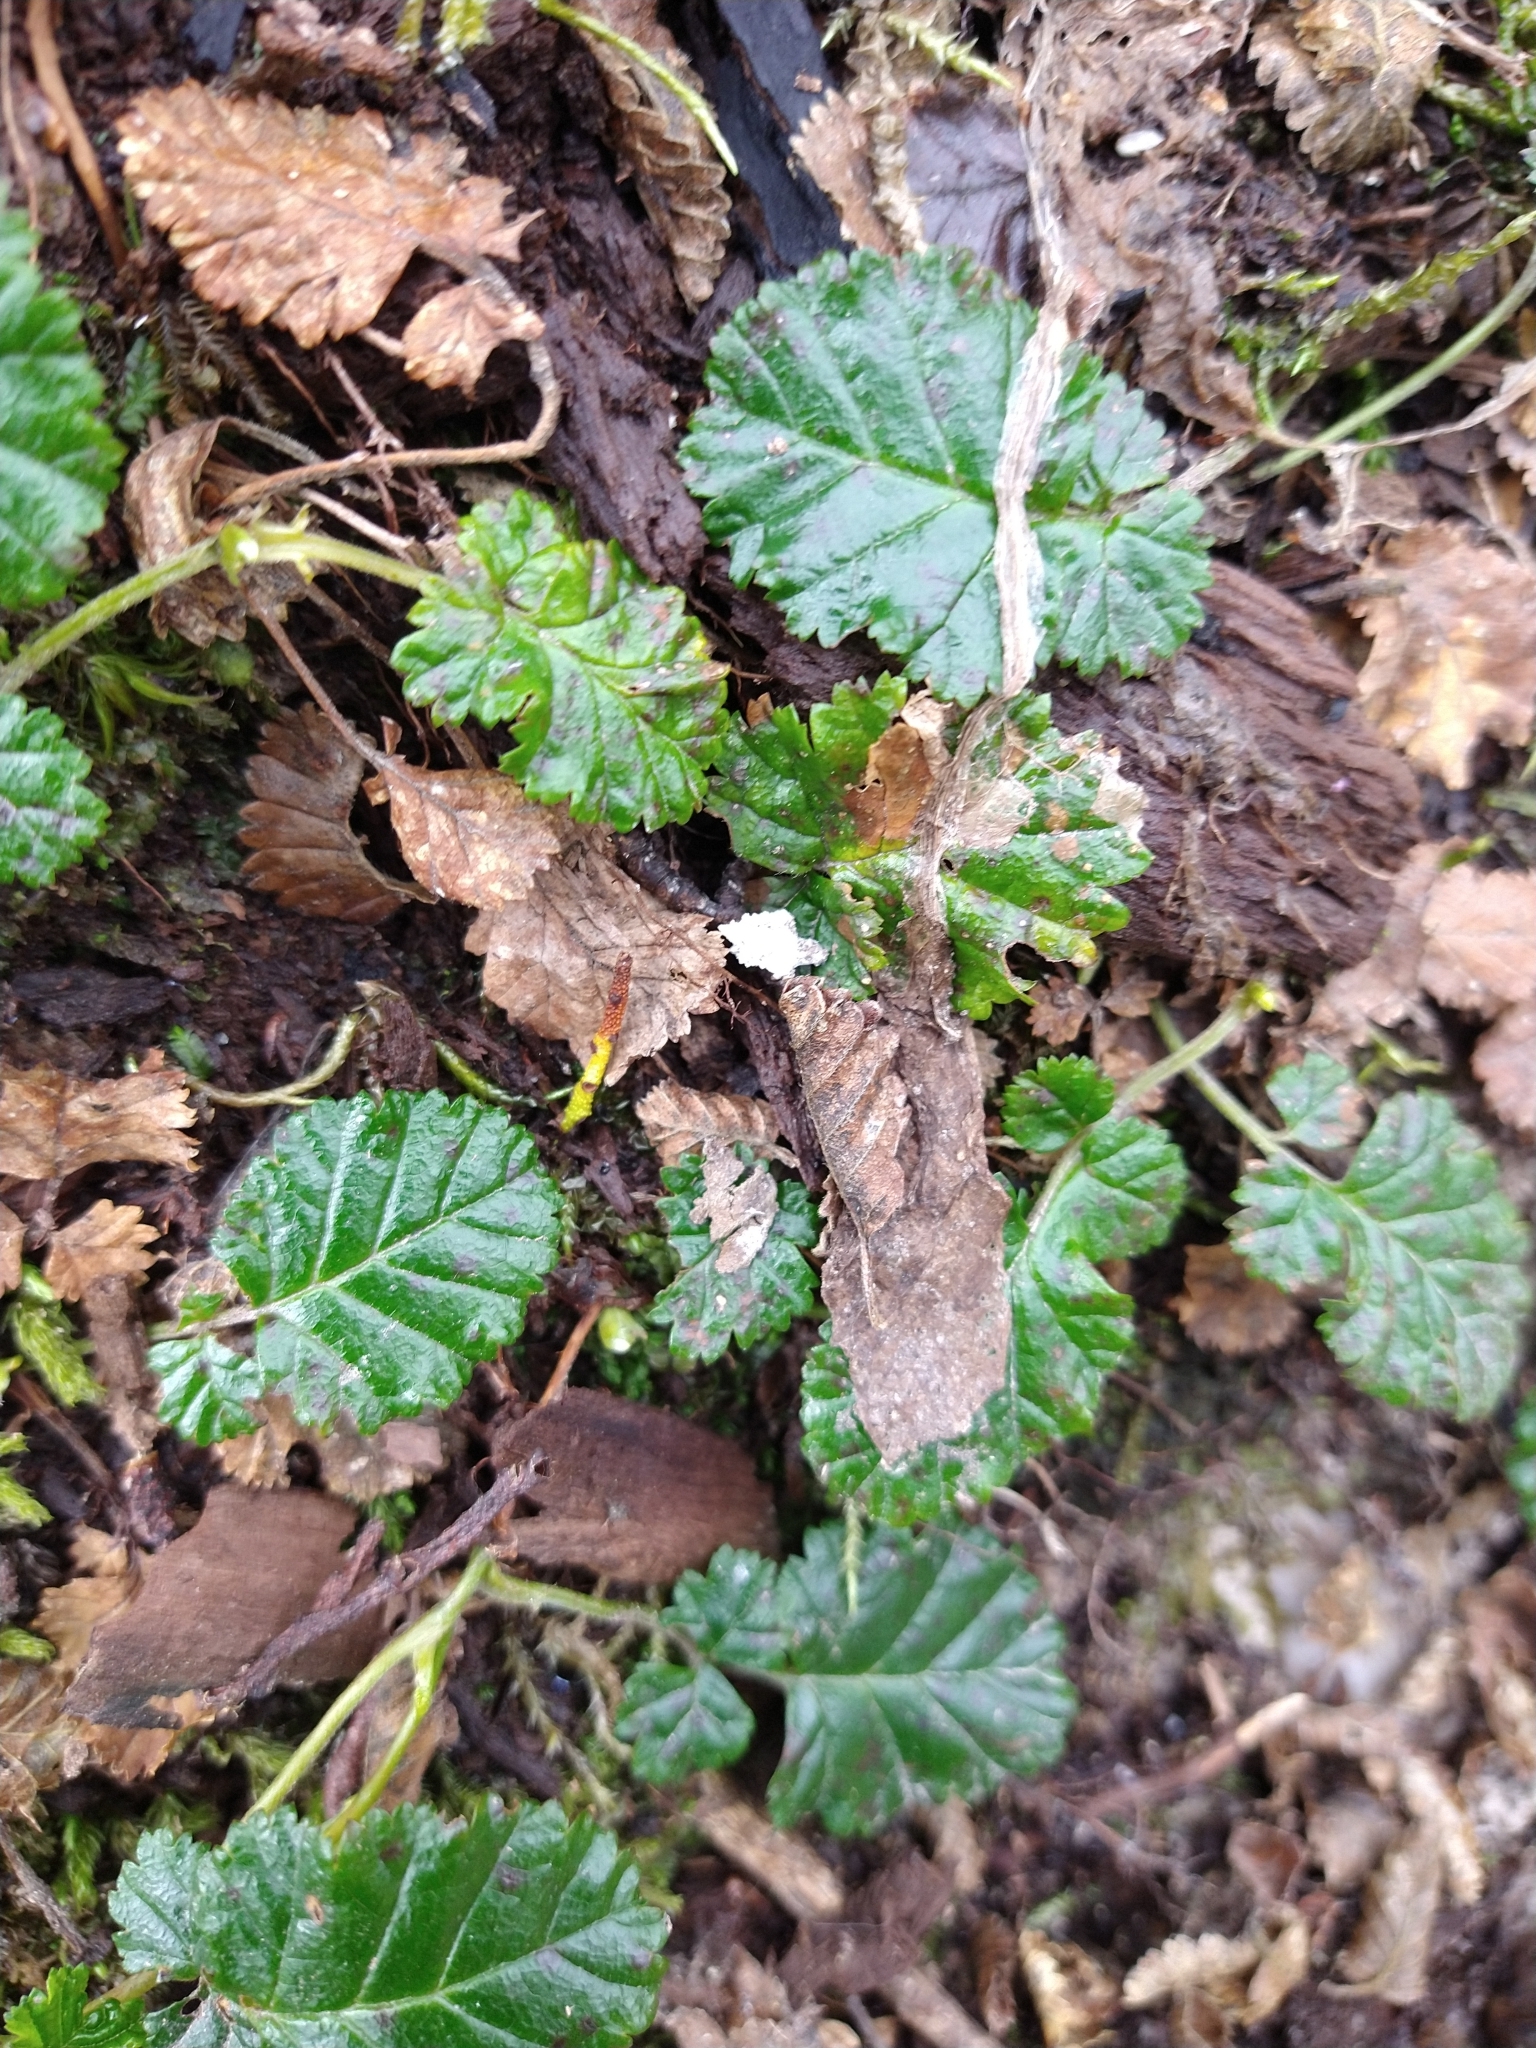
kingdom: Plantae
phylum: Tracheophyta
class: Magnoliopsida
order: Rosales
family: Rosaceae
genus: Rubus
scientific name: Rubus geoides
